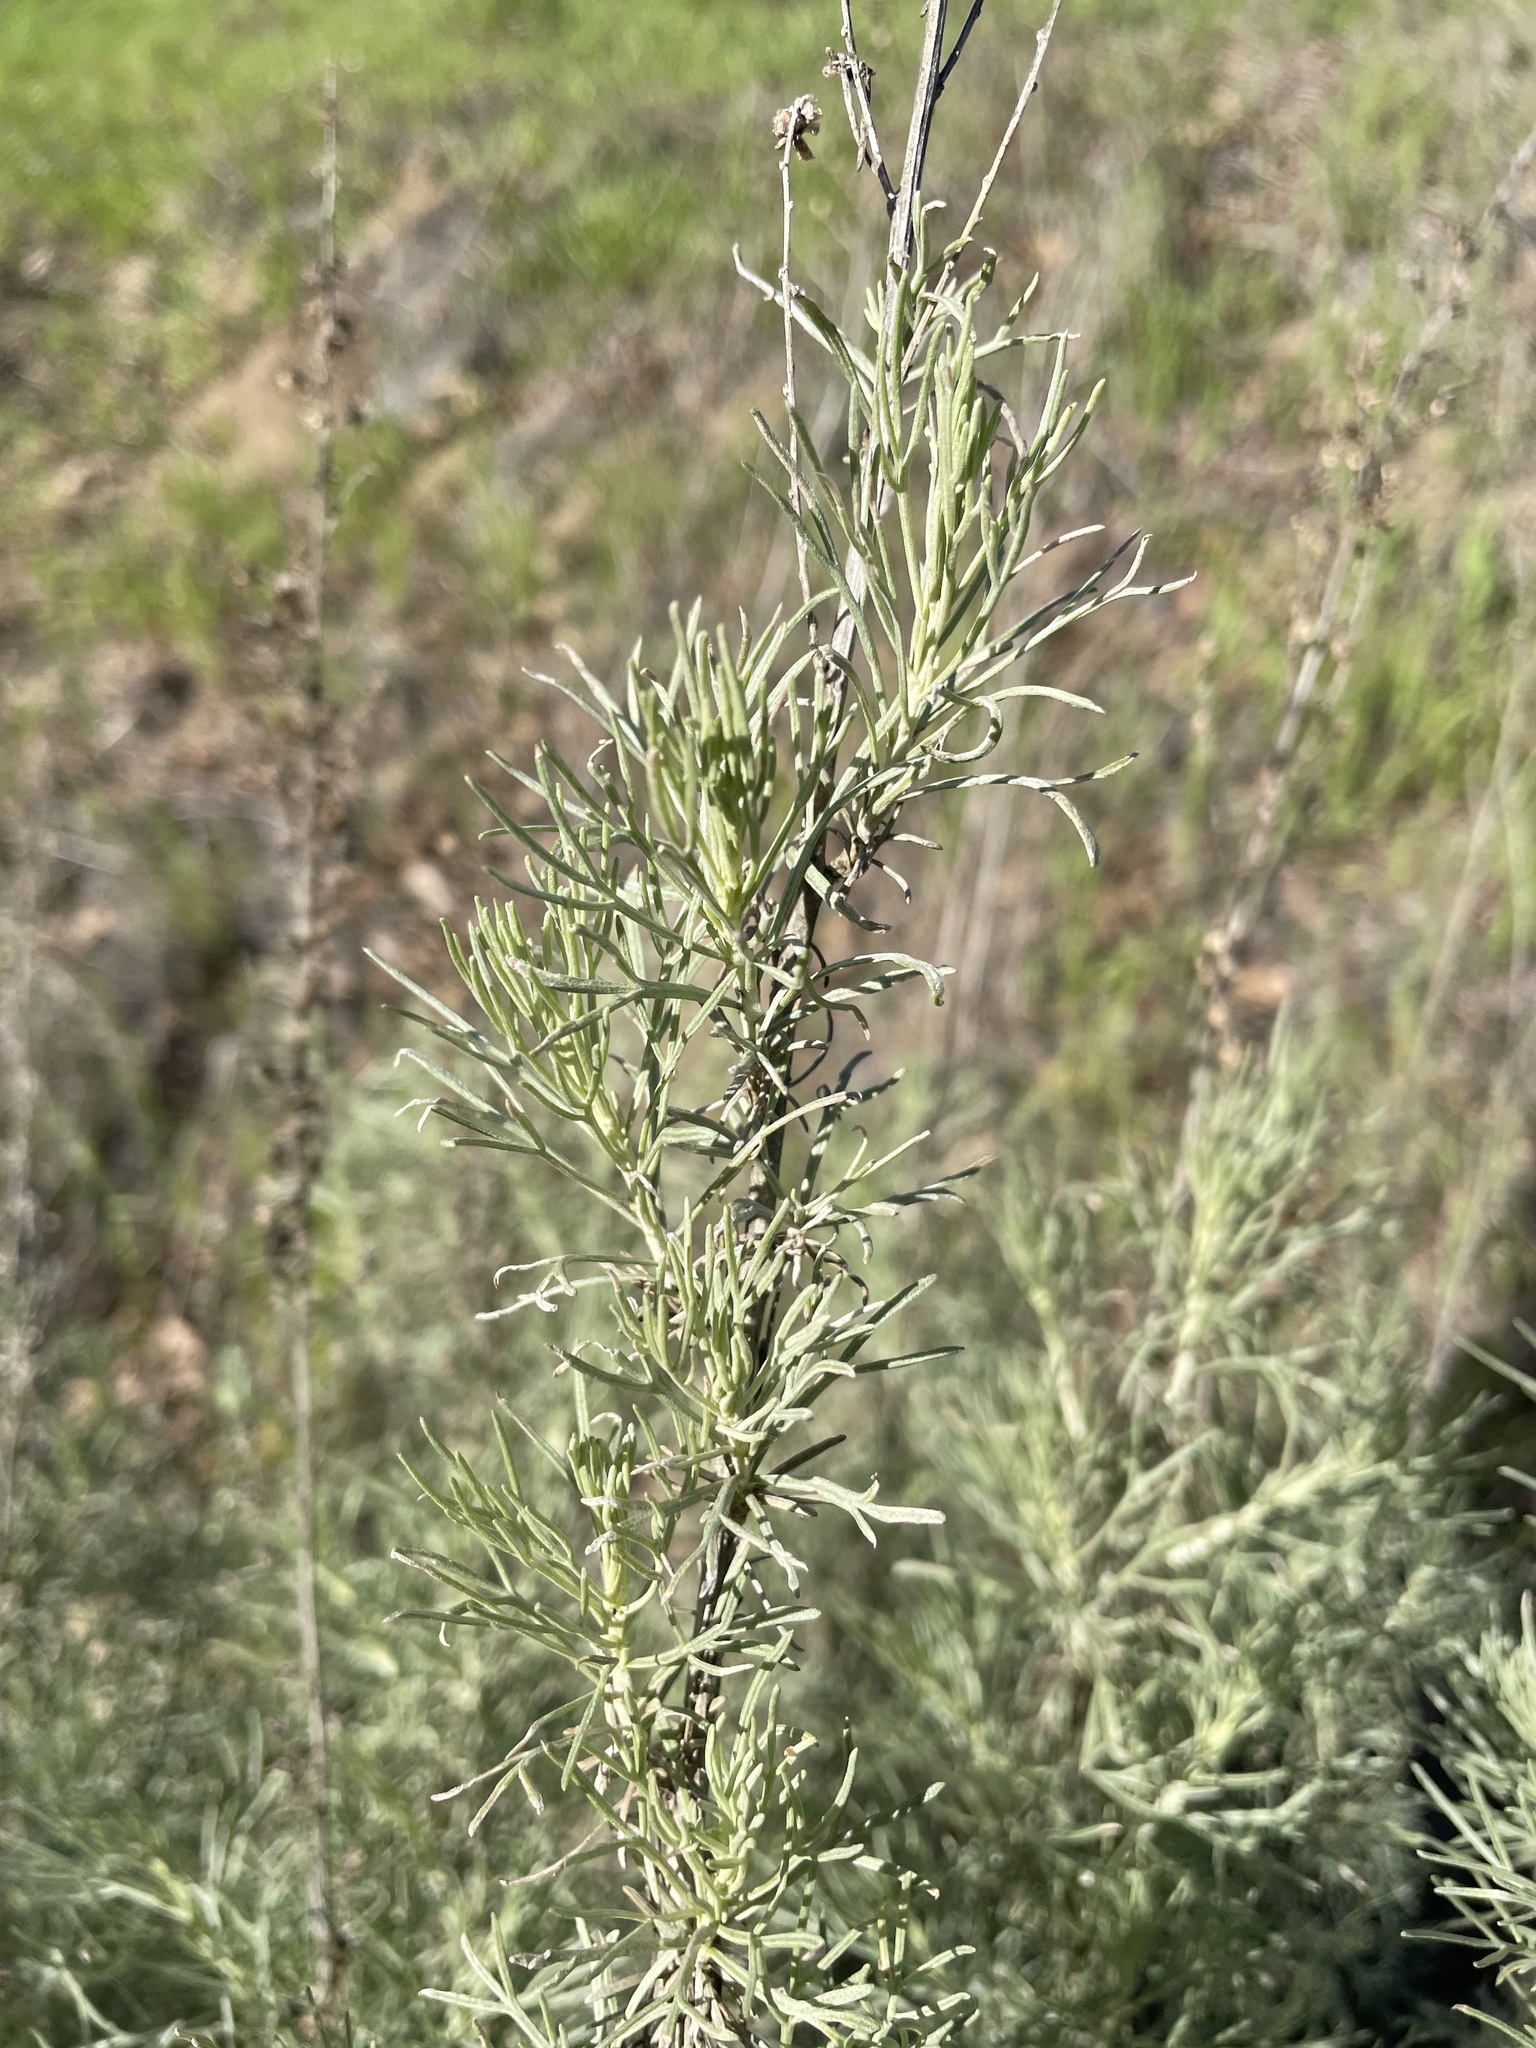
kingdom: Plantae
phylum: Tracheophyta
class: Magnoliopsida
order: Asterales
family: Asteraceae
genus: Artemisia
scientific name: Artemisia californica
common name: California sagebrush
